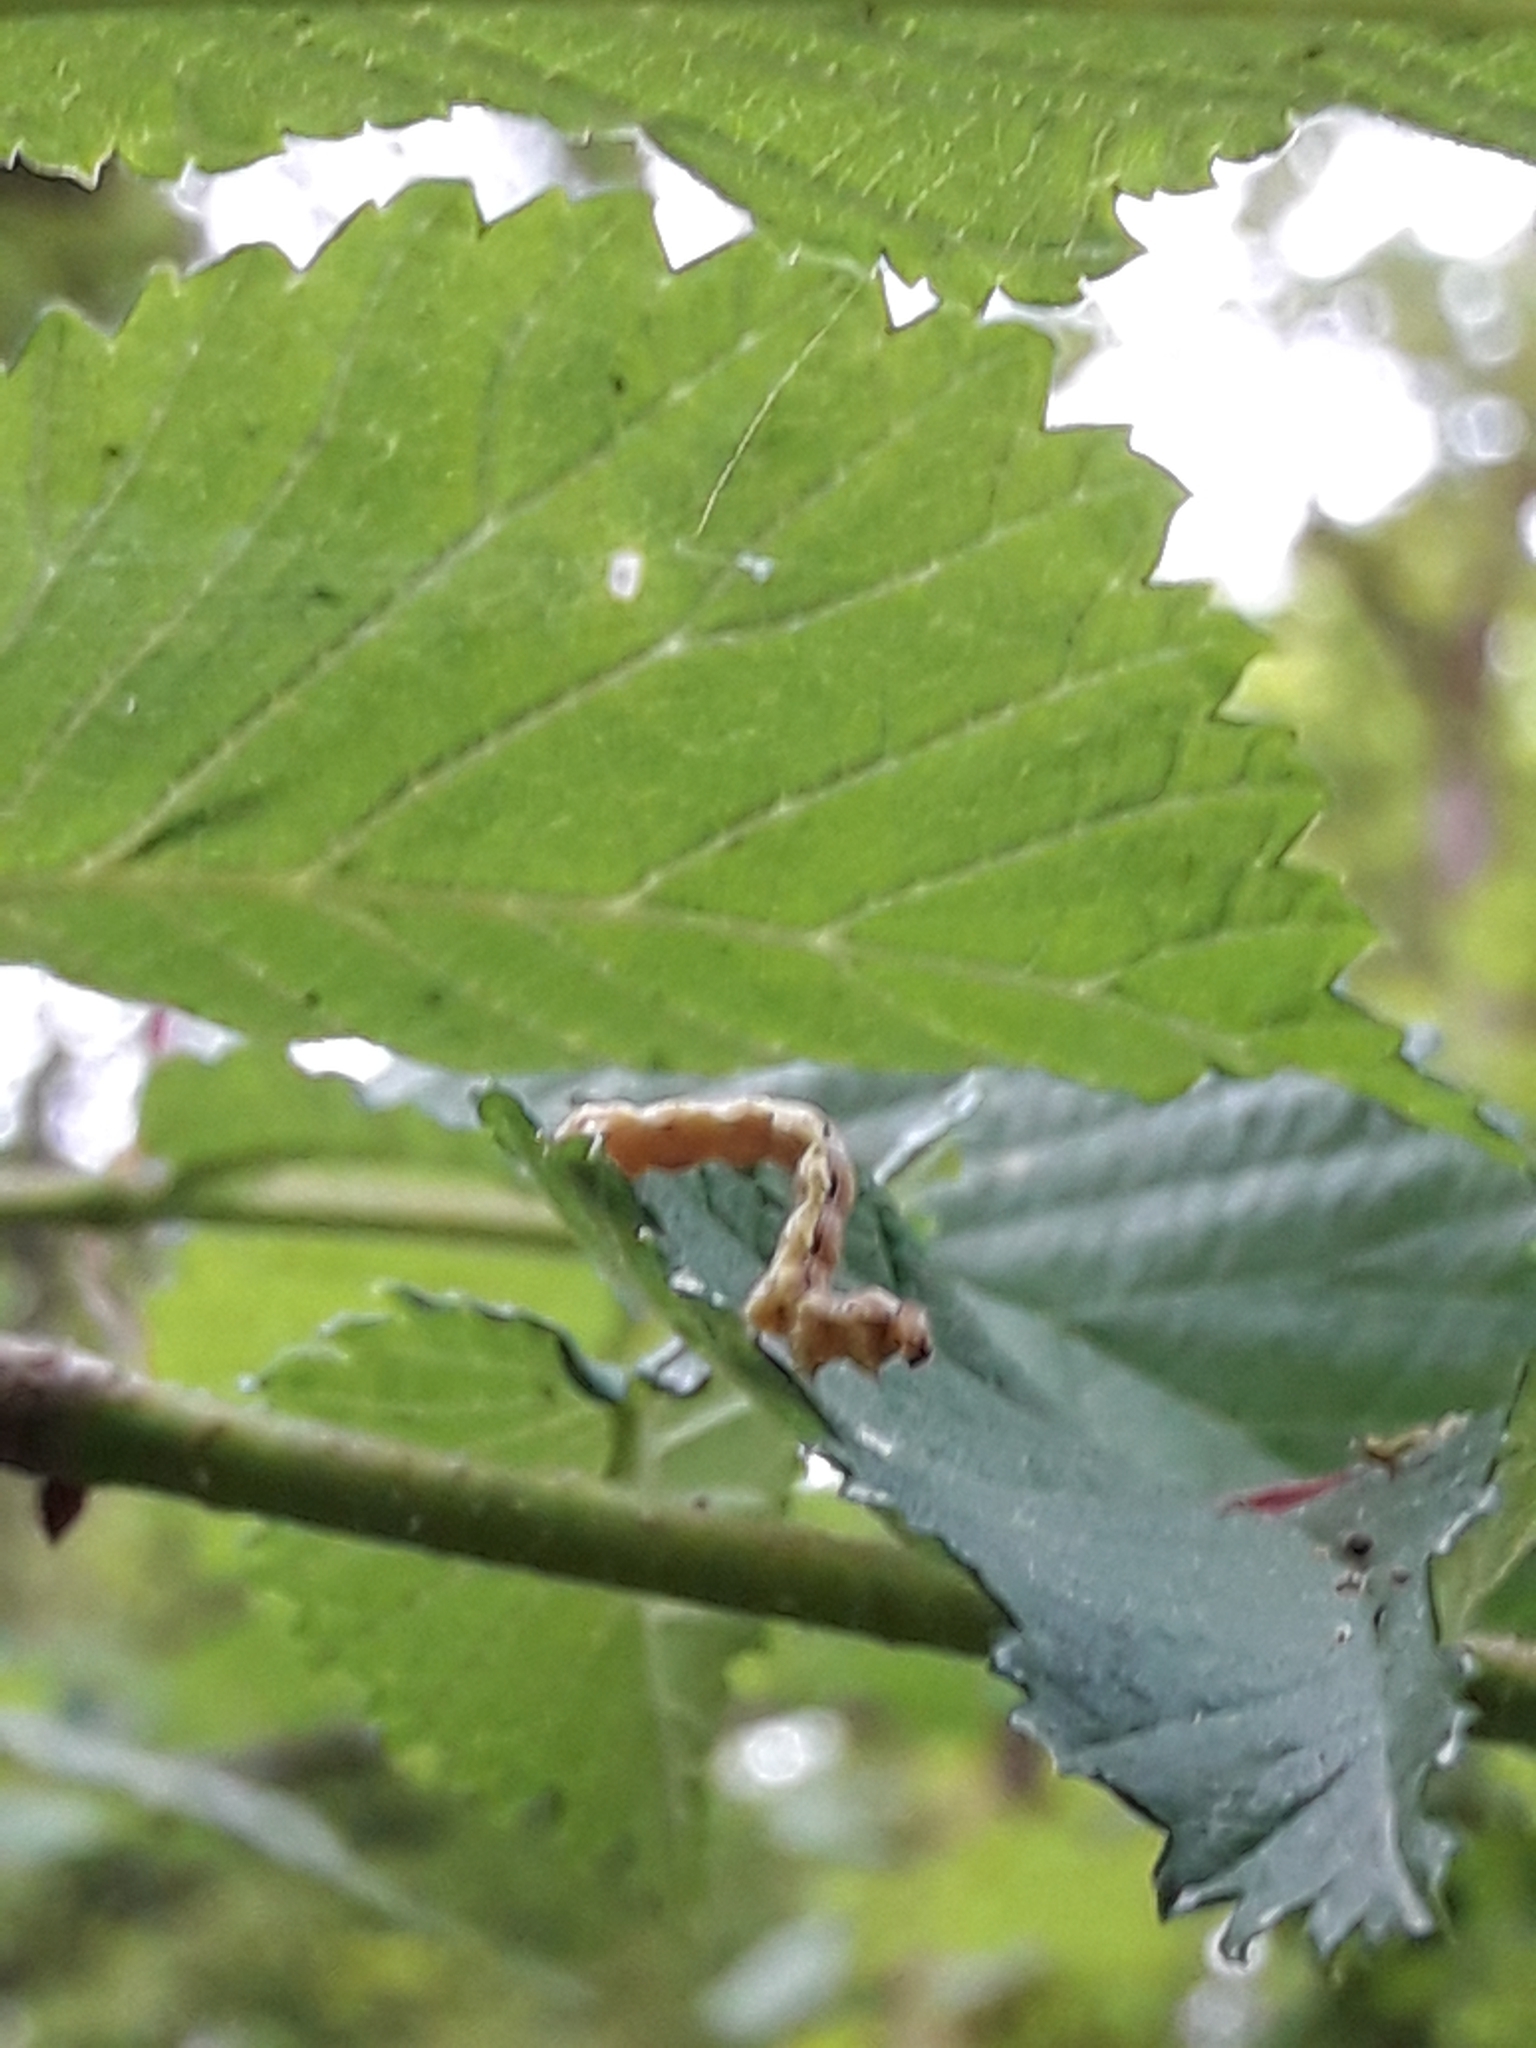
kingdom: Animalia
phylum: Arthropoda
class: Insecta
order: Lepidoptera
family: Geometridae
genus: Erannis
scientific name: Erannis defoliaria
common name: Mottled umber
